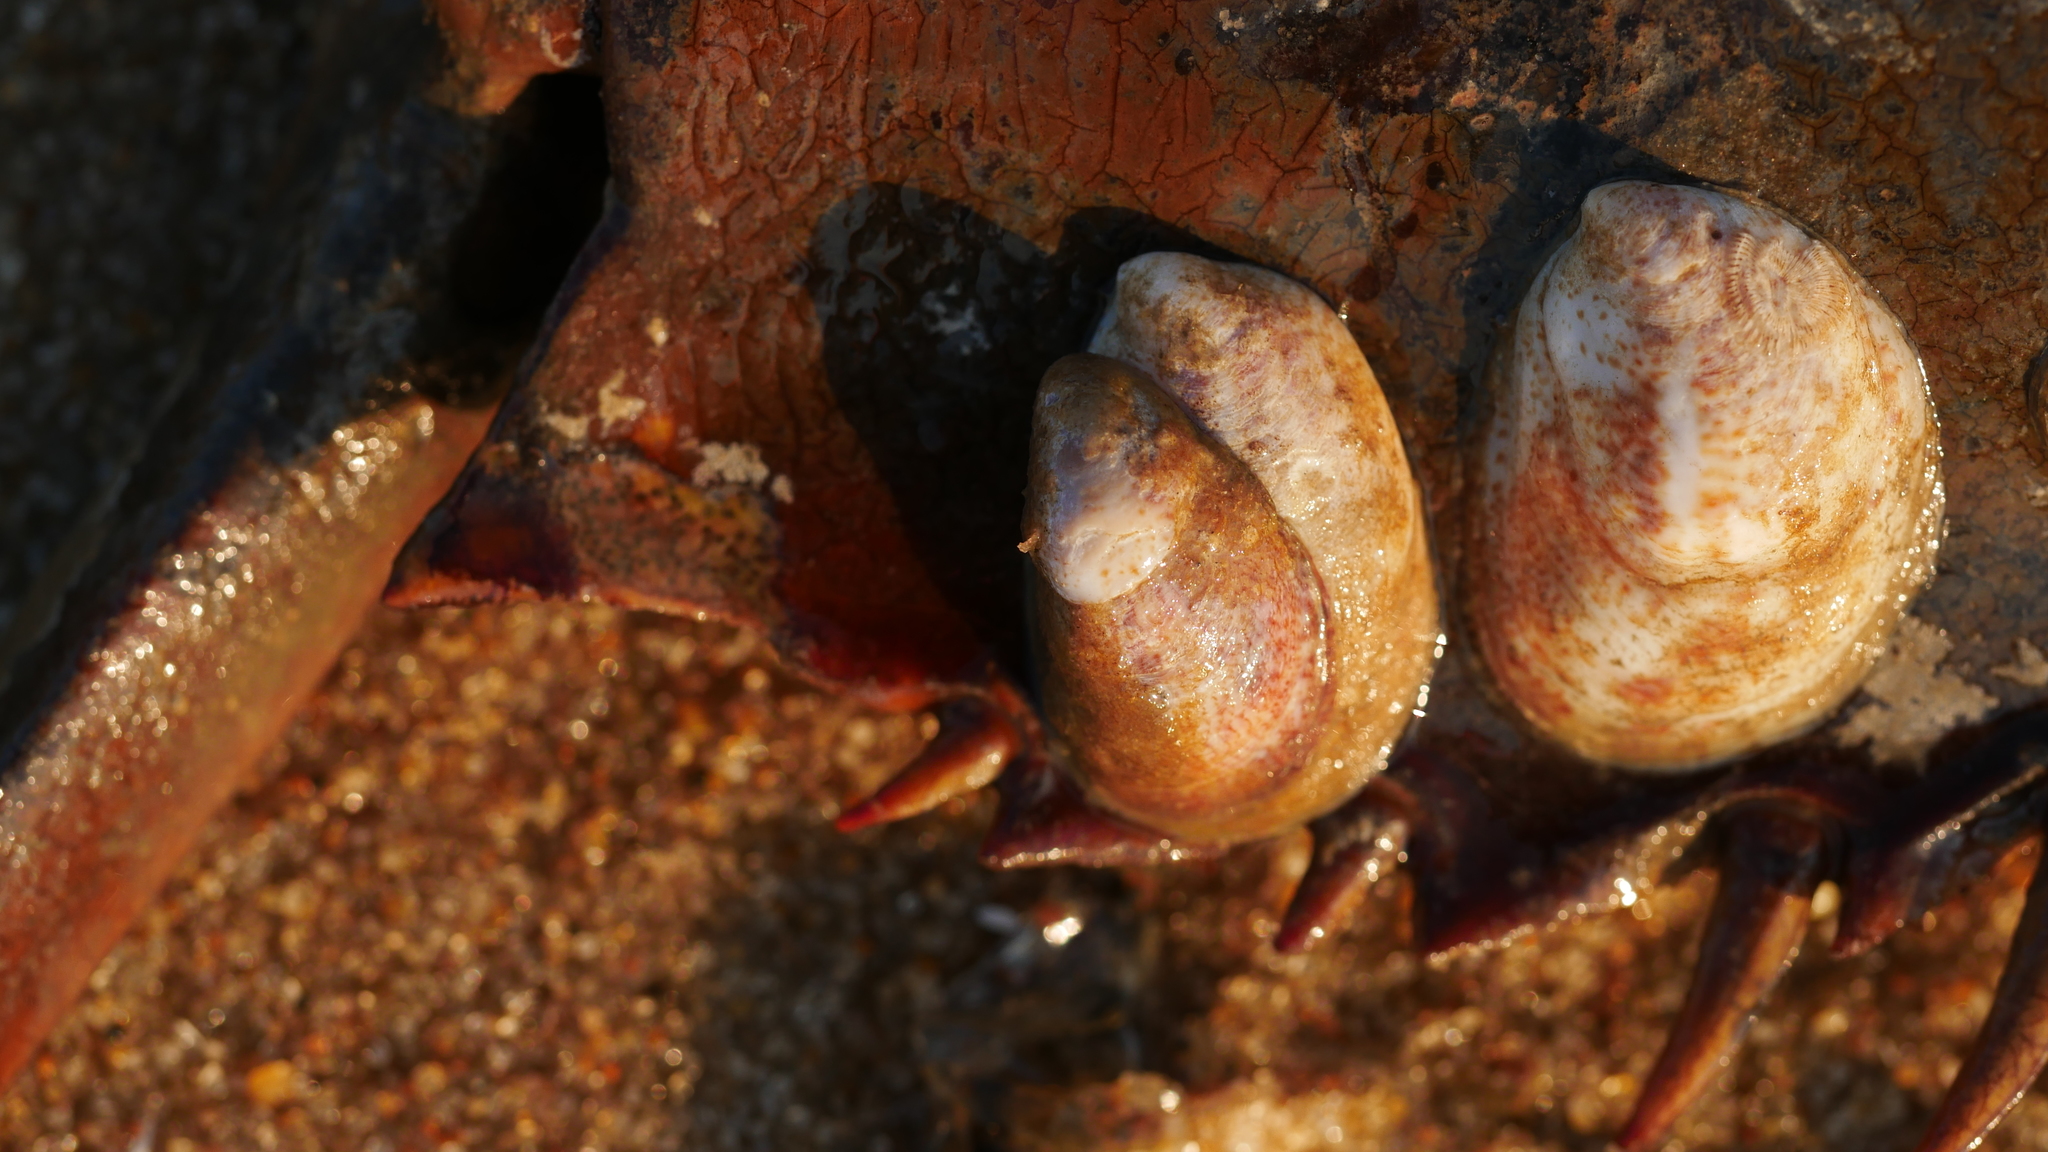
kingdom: Animalia
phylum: Mollusca
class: Gastropoda
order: Littorinimorpha
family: Calyptraeidae
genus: Crepidula
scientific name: Crepidula fornicata
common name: Slipper limpet
